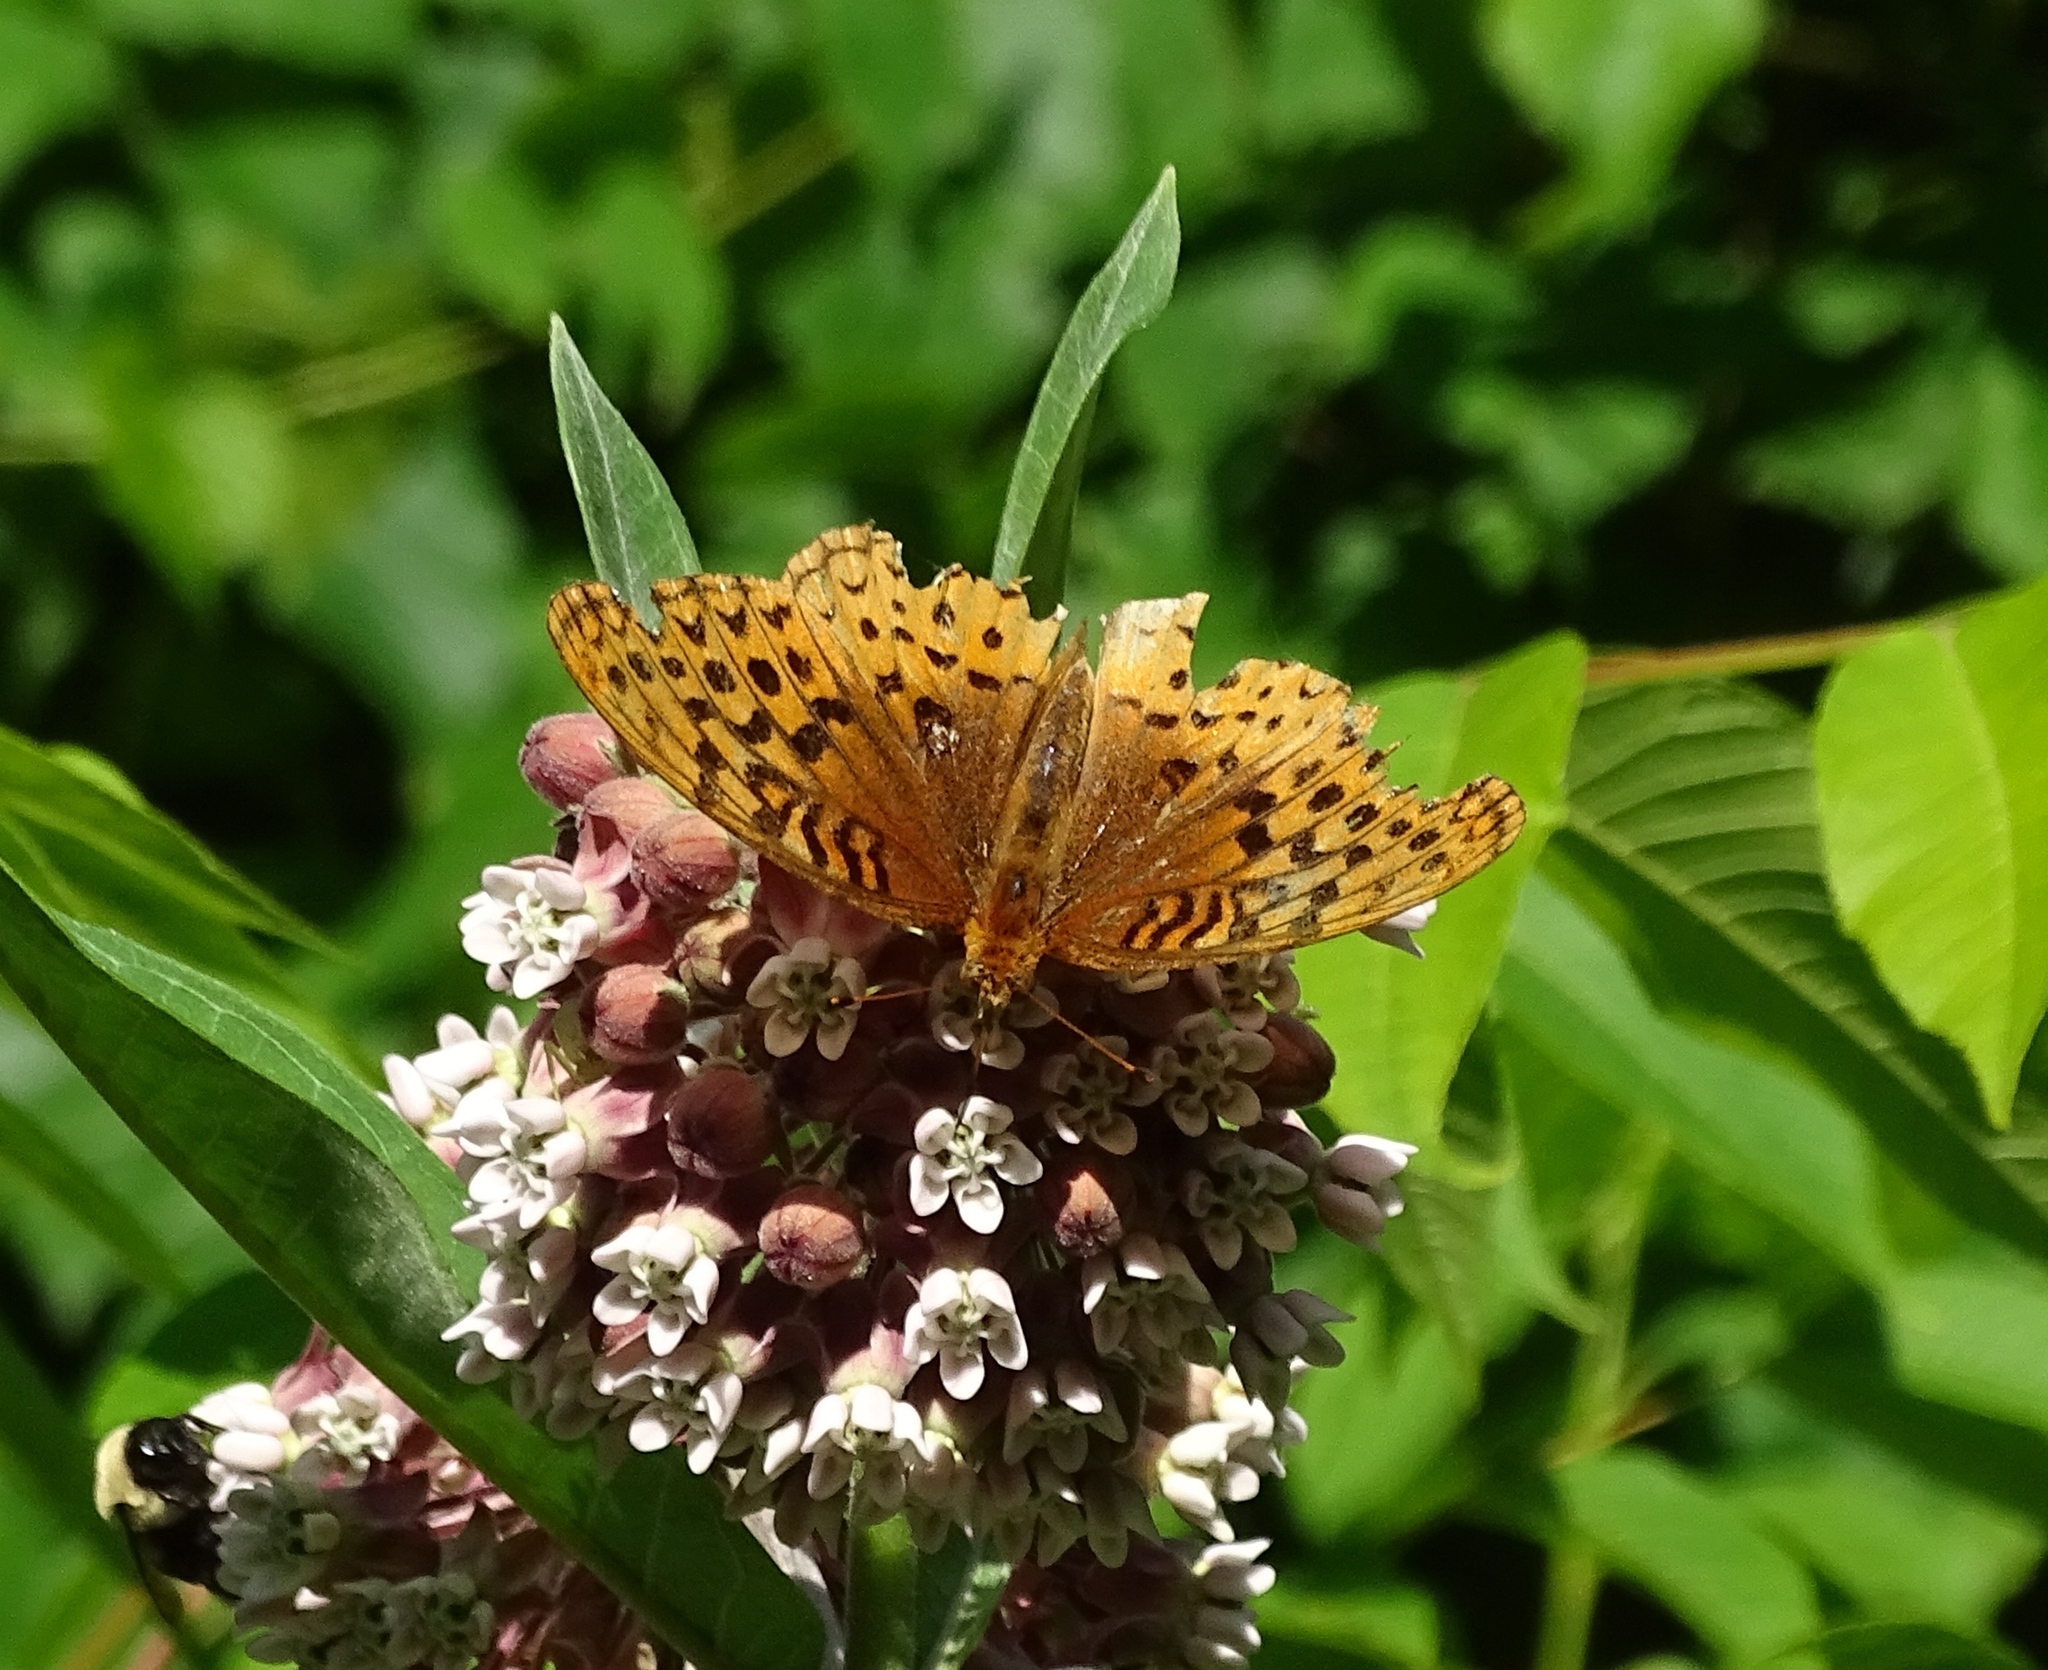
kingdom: Animalia
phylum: Arthropoda
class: Insecta
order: Lepidoptera
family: Nymphalidae
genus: Speyeria
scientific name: Speyeria cybele
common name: Great spangled fritillary
